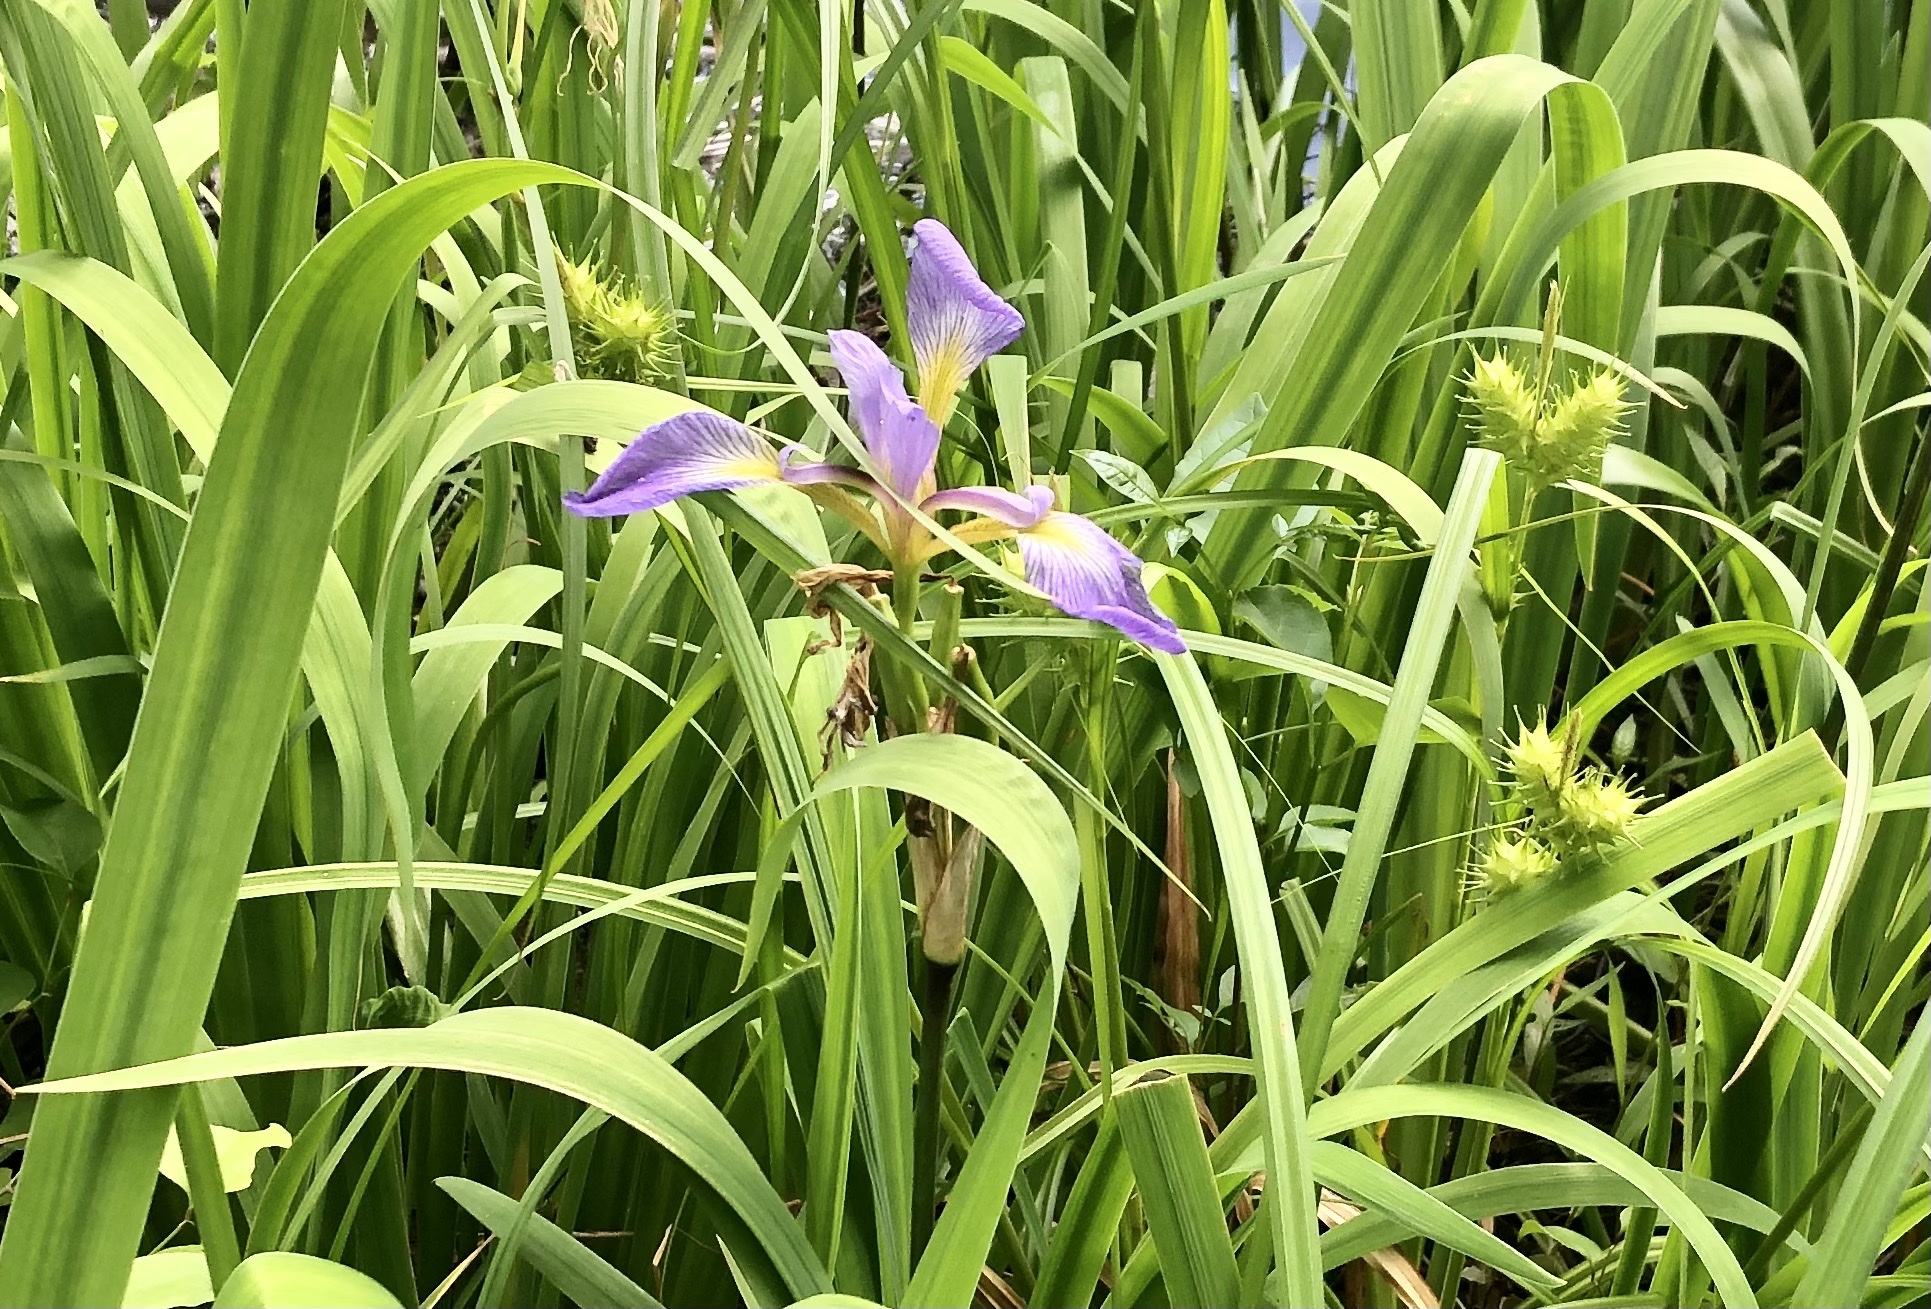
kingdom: Plantae
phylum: Tracheophyta
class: Liliopsida
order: Asparagales
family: Iridaceae
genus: Iris
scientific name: Iris virginica
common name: Southern blue flag
